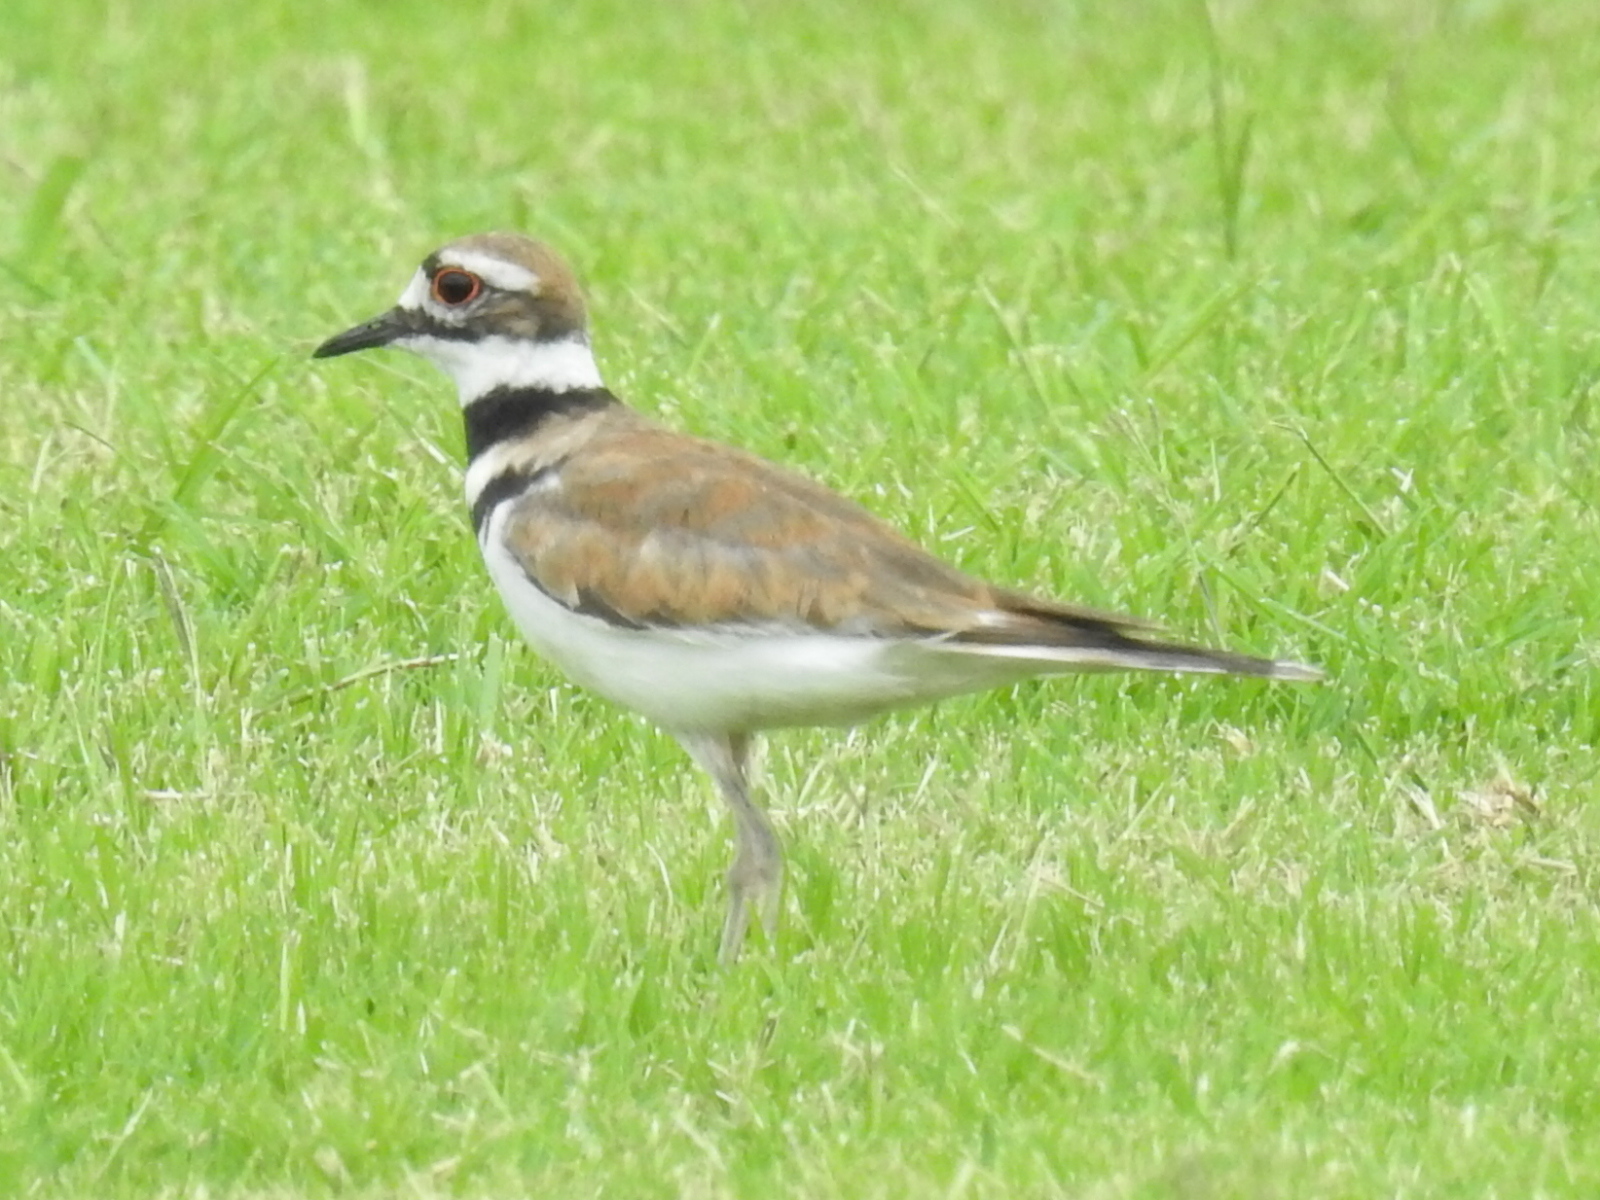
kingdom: Animalia
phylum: Chordata
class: Aves
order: Charadriiformes
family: Charadriidae
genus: Charadrius
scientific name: Charadrius vociferus
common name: Killdeer
